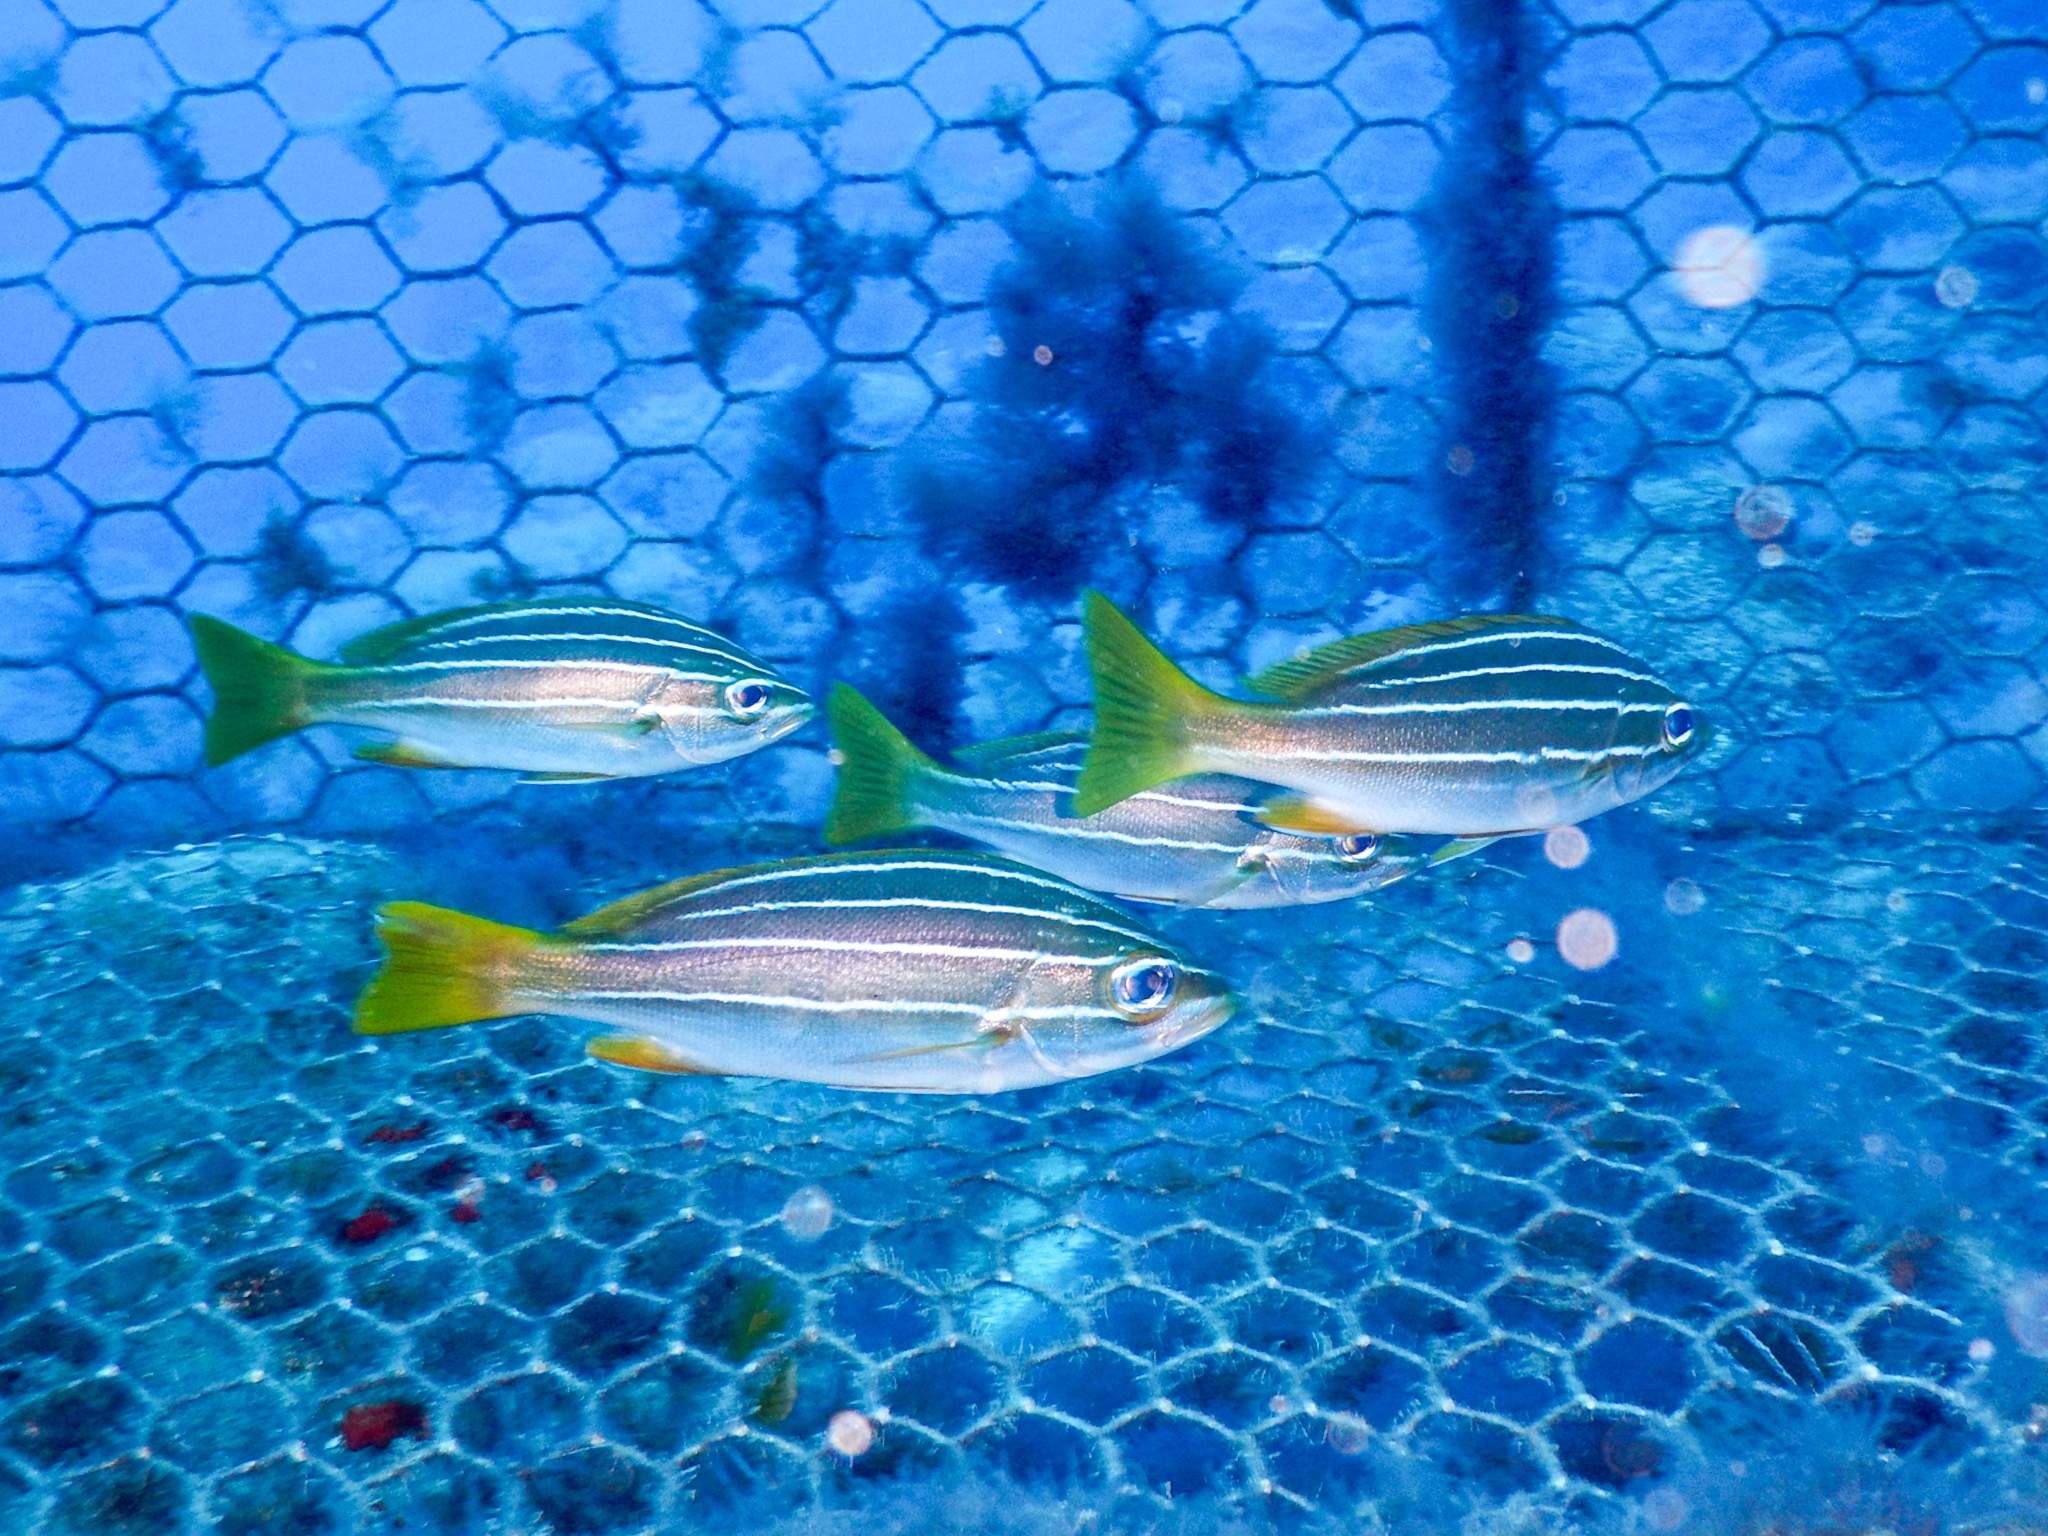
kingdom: Animalia
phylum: Chordata
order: Perciformes
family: Haemulidae
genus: Parapristipoma
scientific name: Parapristipoma octolineatum
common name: African striped grunt
